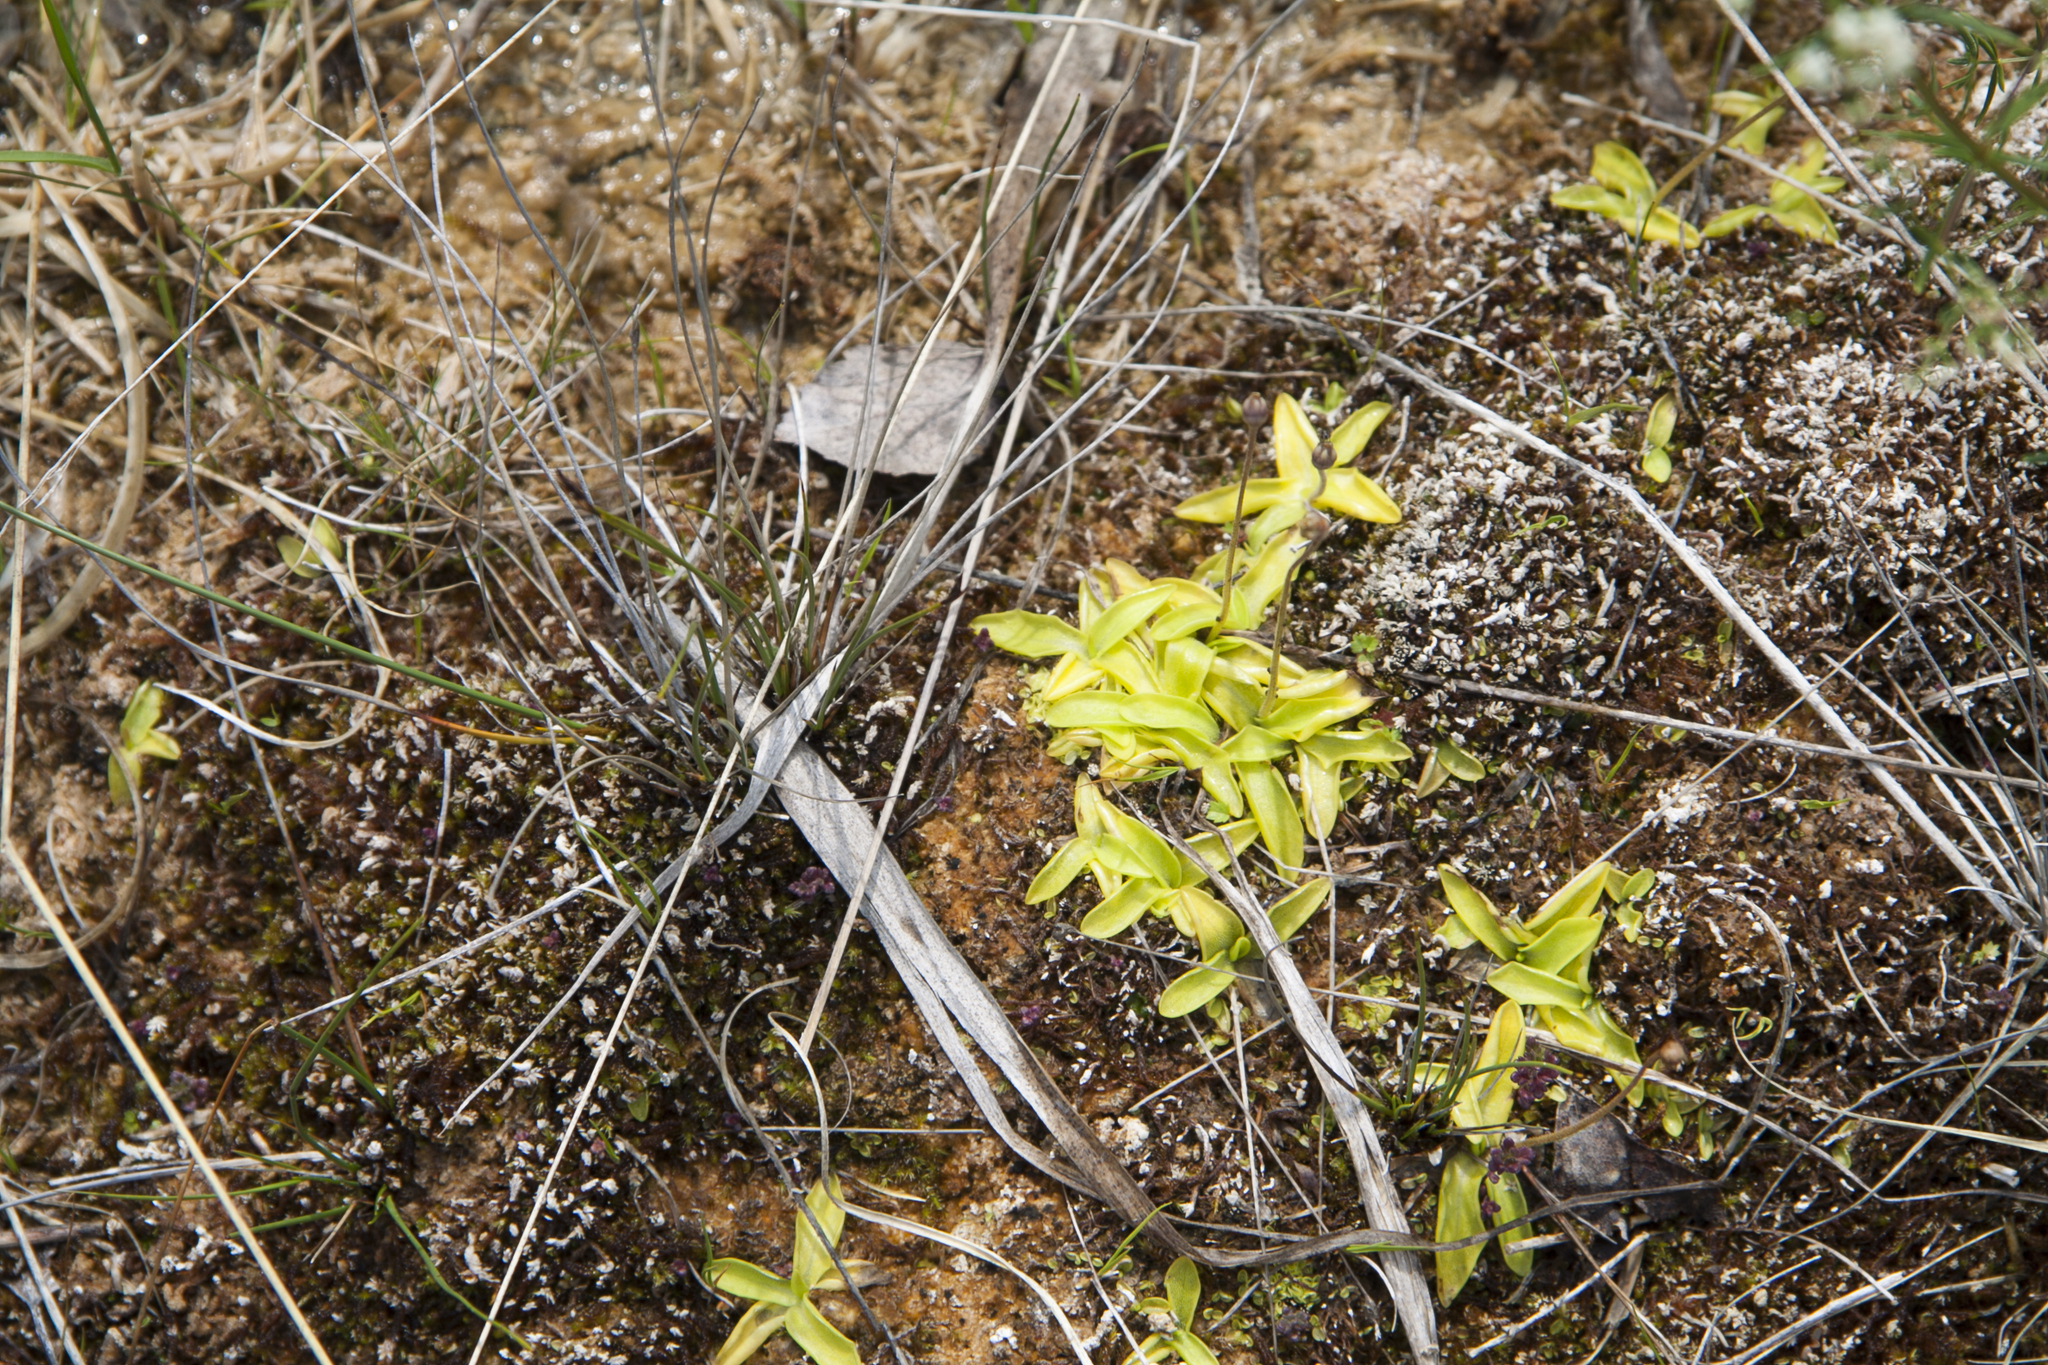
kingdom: Plantae
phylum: Tracheophyta
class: Magnoliopsida
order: Lamiales
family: Lentibulariaceae
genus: Pinguicula
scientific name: Pinguicula vulgaris
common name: Common butterwort
